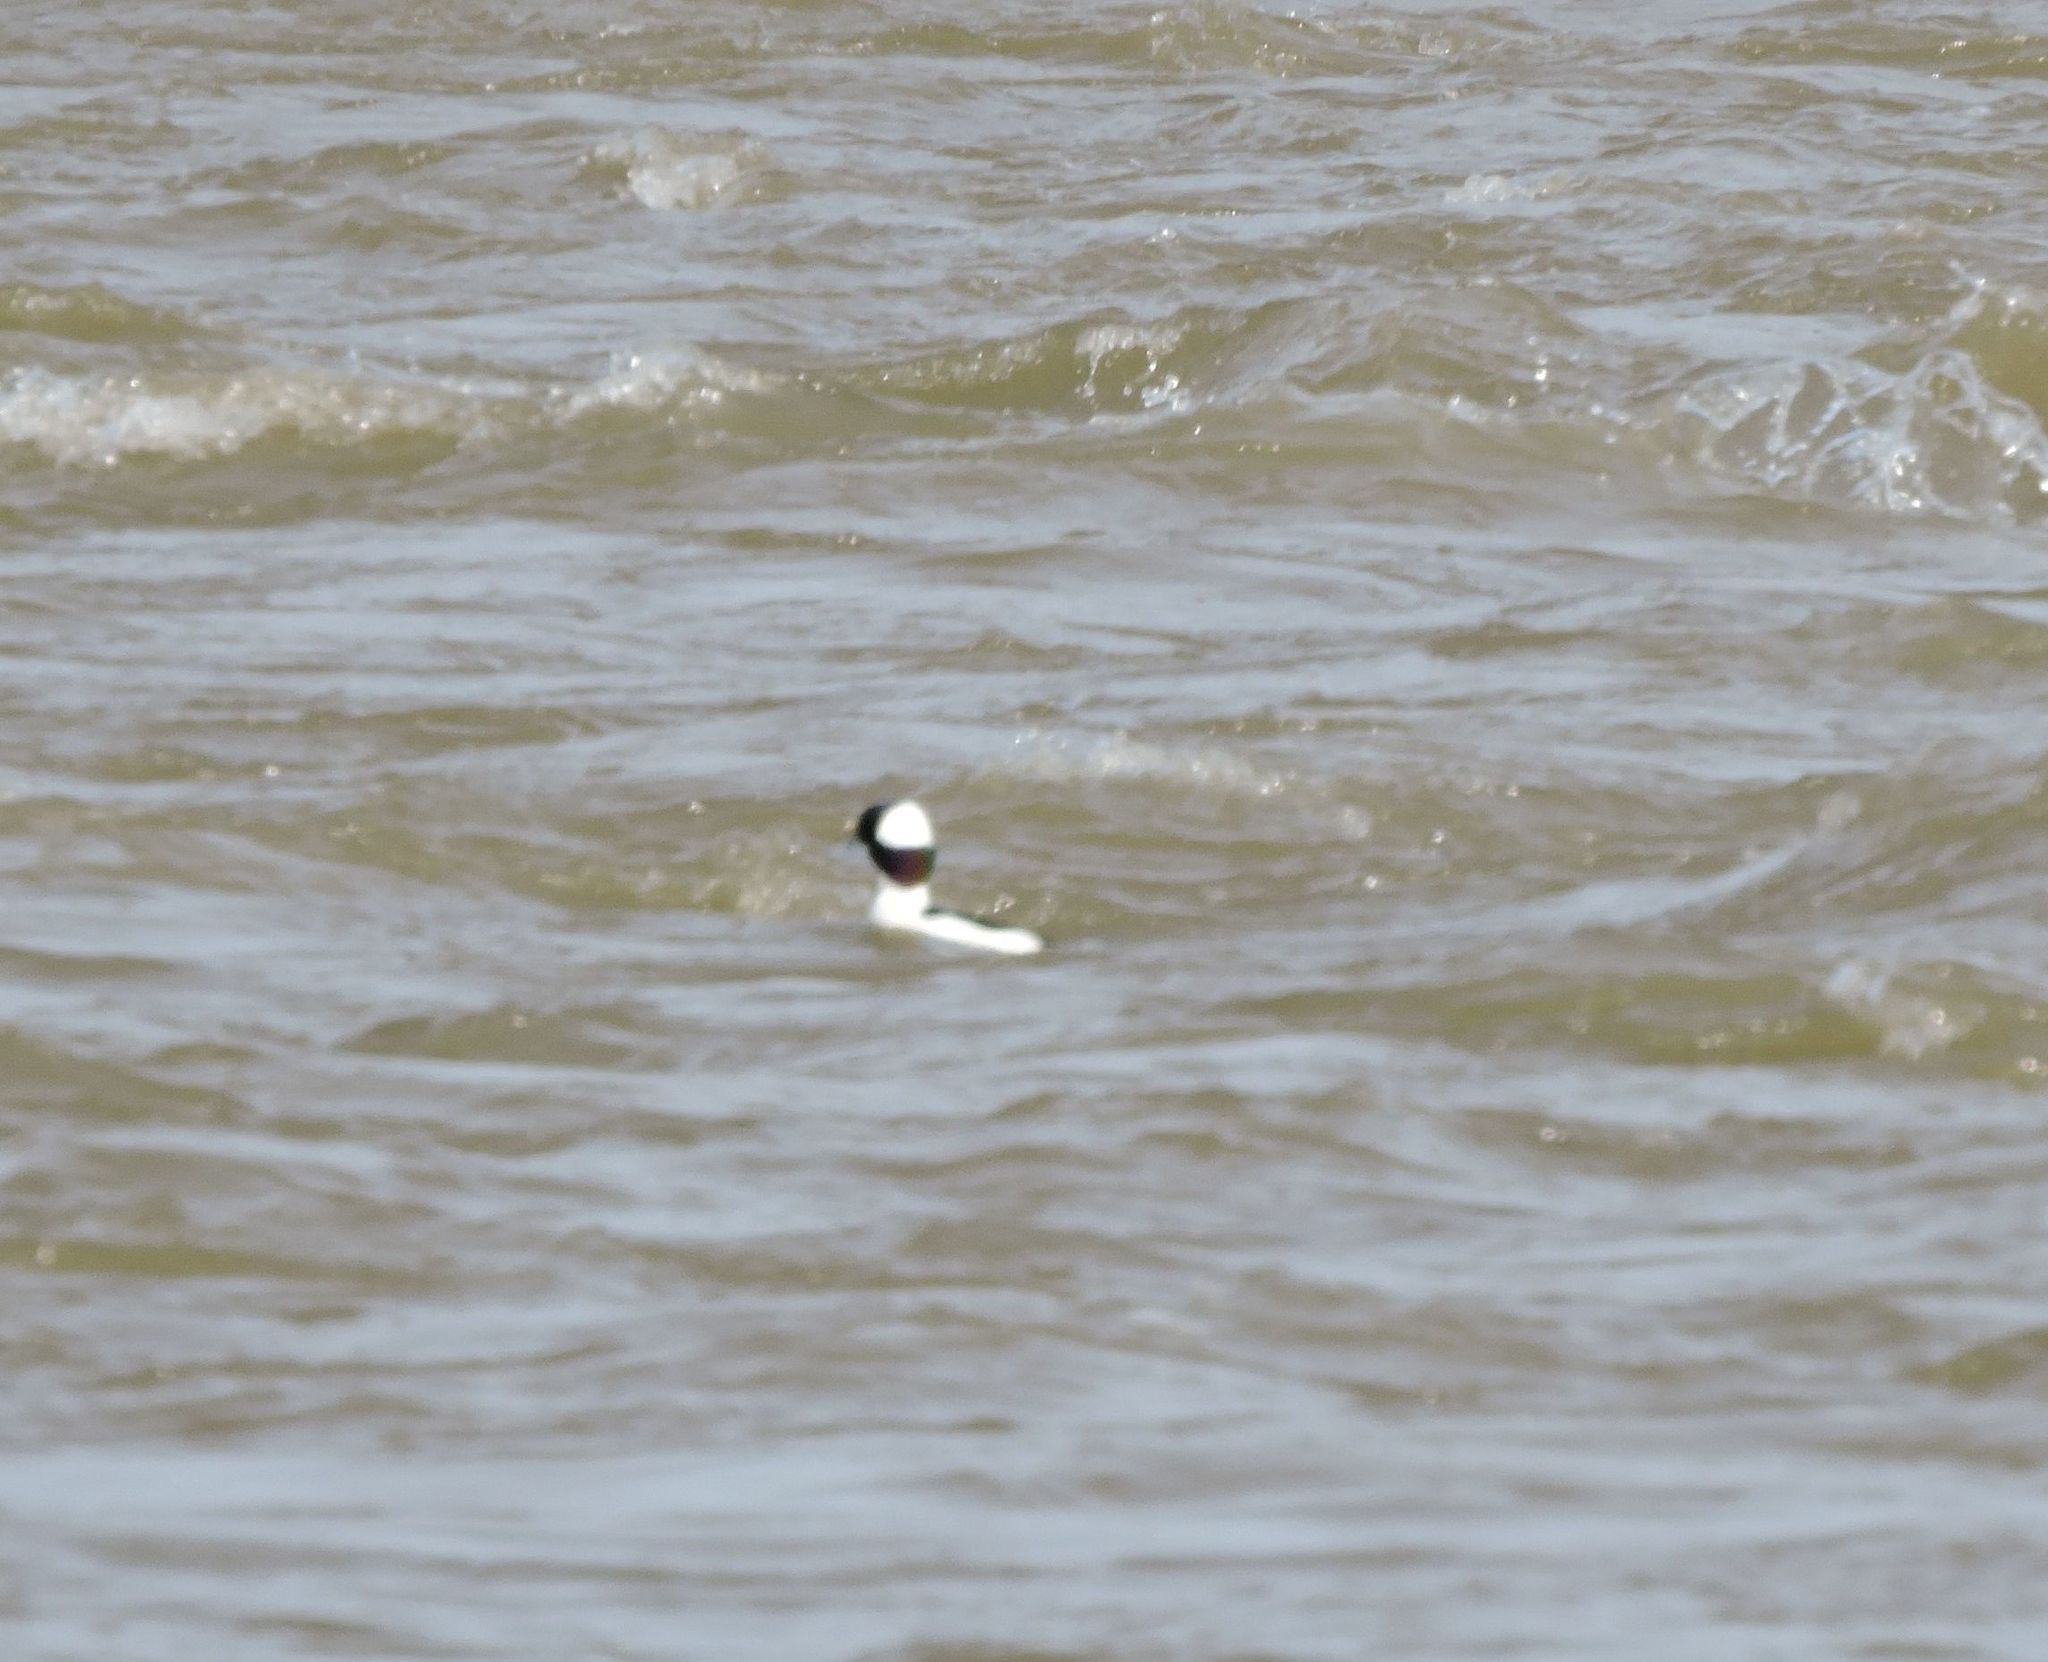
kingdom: Animalia
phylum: Chordata
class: Aves
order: Anseriformes
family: Anatidae
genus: Bucephala
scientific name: Bucephala albeola
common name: Bufflehead
